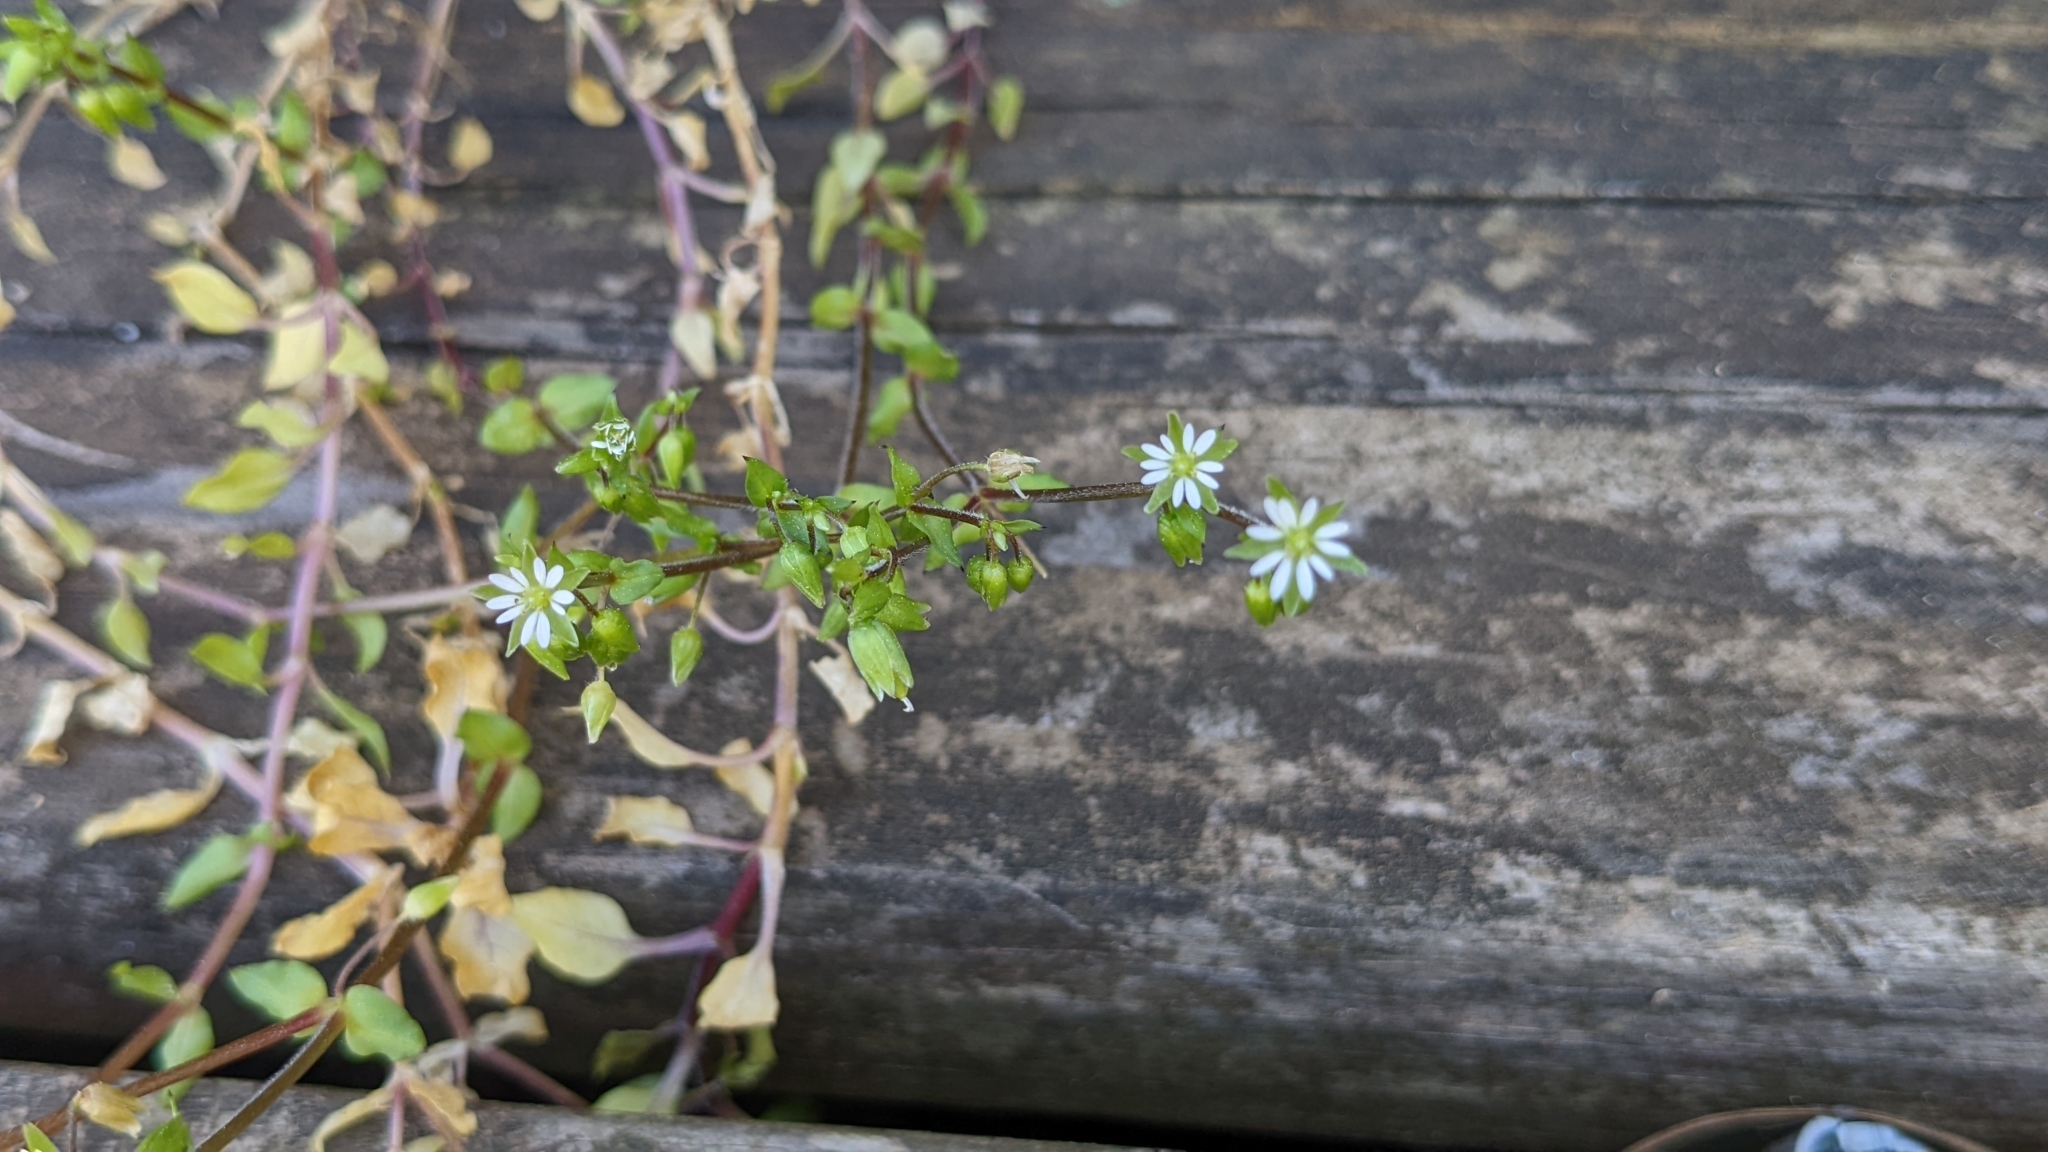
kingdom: Plantae
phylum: Tracheophyta
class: Magnoliopsida
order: Caryophyllales
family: Caryophyllaceae
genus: Stellaria
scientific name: Stellaria media
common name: Common chickweed
